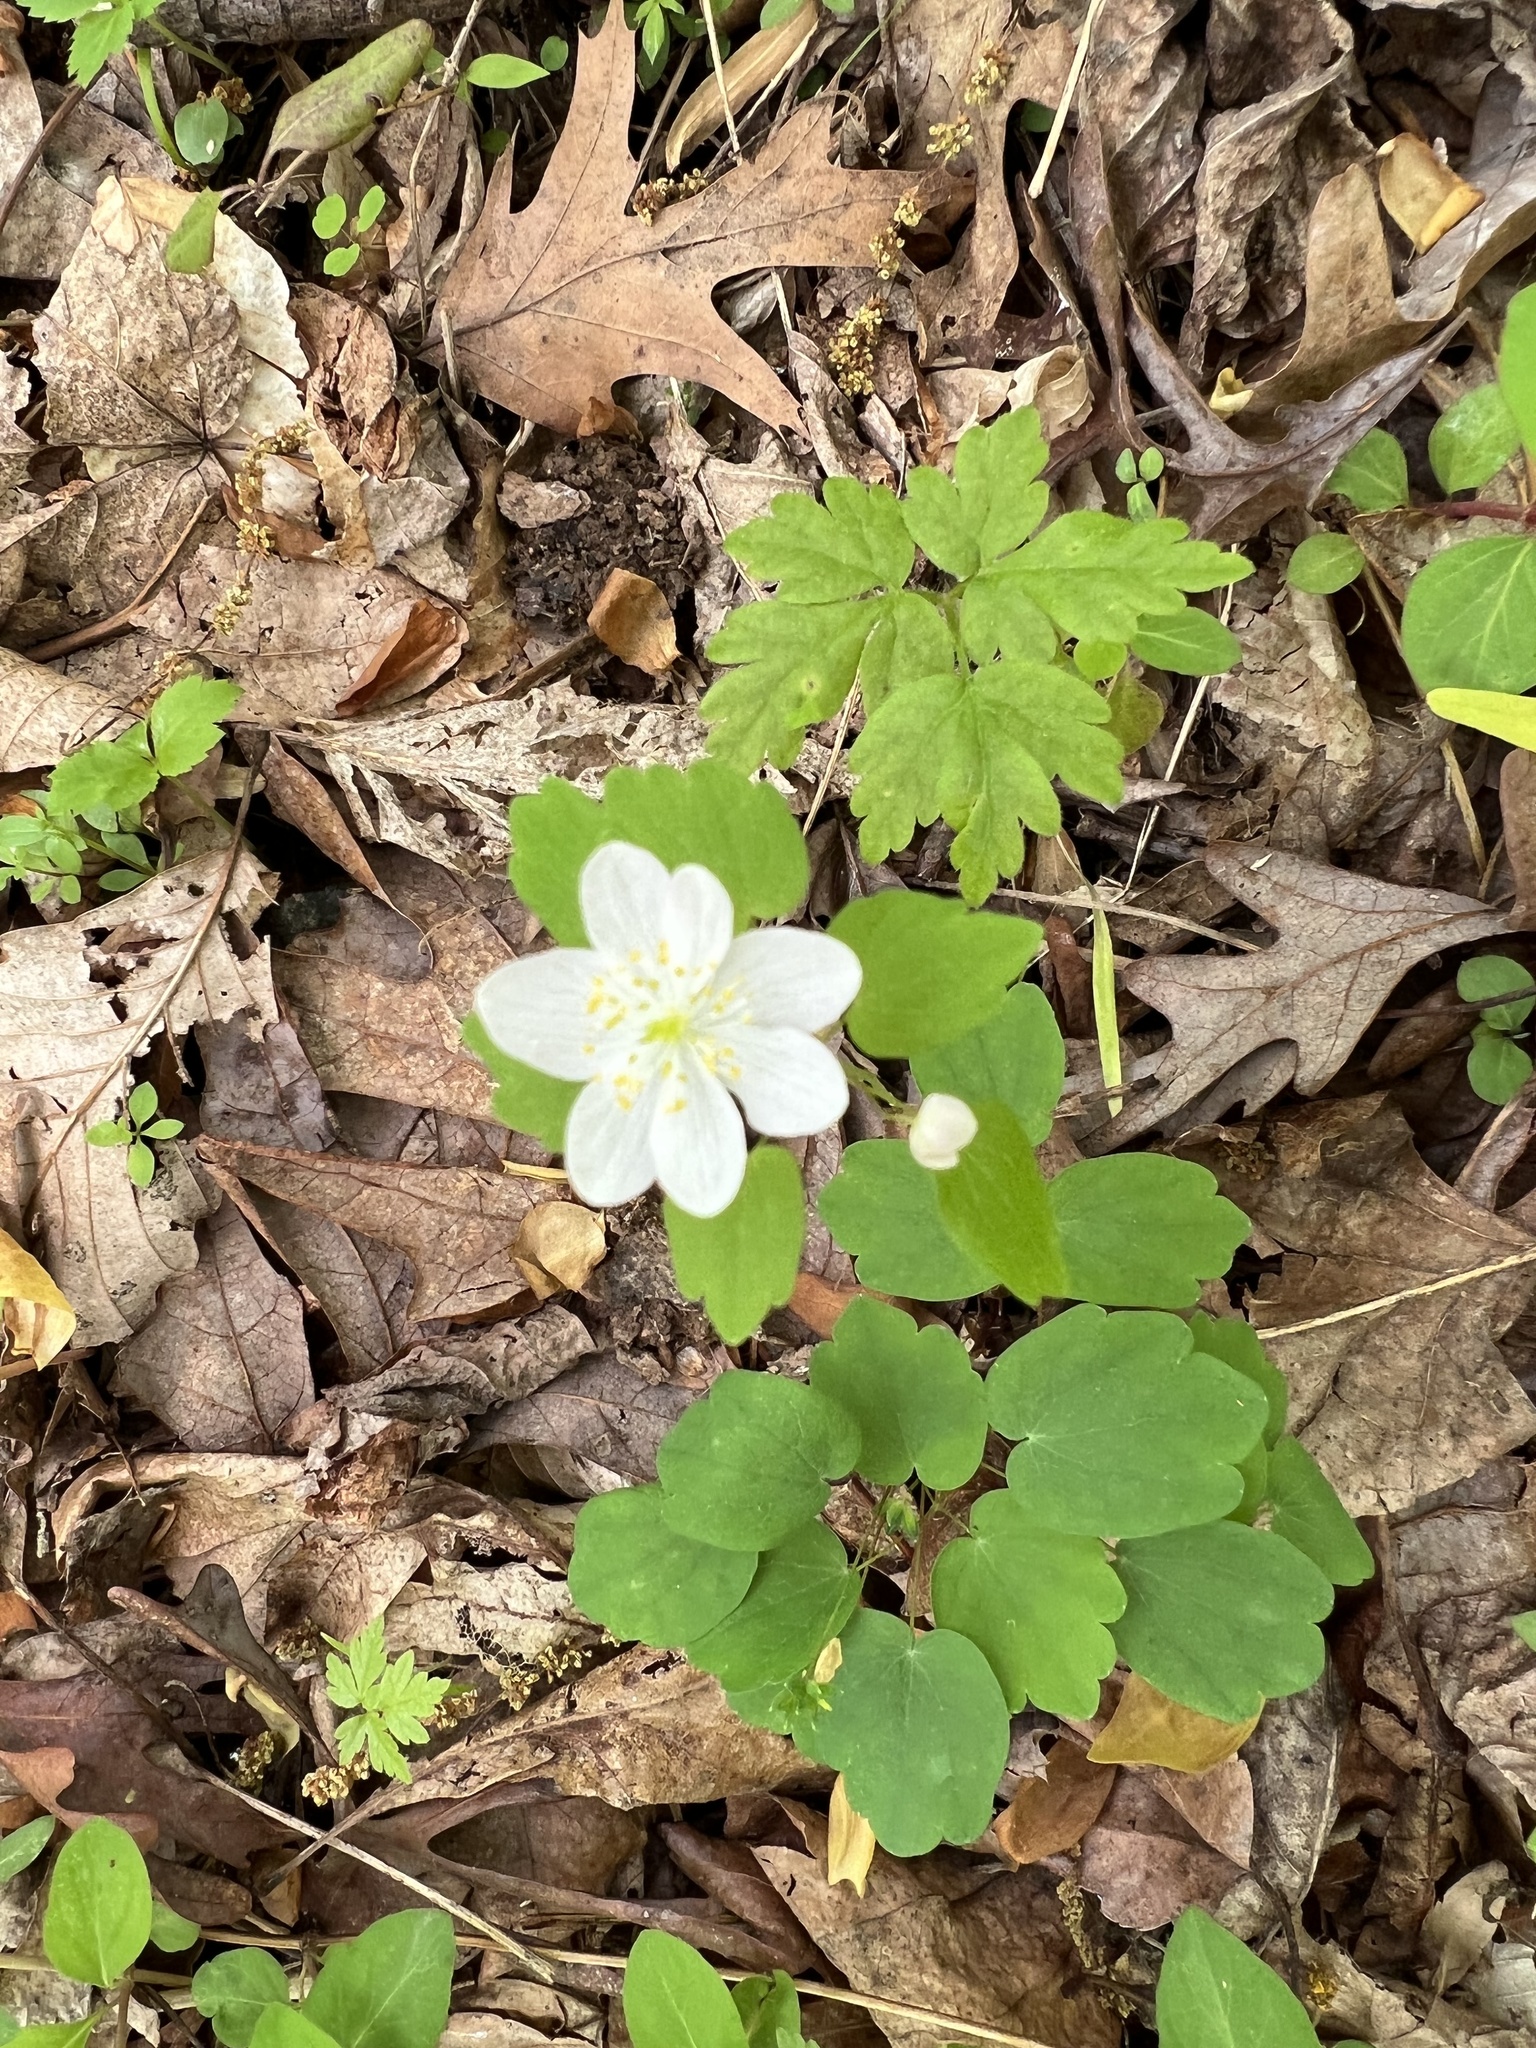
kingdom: Plantae
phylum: Tracheophyta
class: Magnoliopsida
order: Ranunculales
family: Ranunculaceae
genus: Thalictrum
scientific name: Thalictrum thalictroides
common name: Rue-anemone
